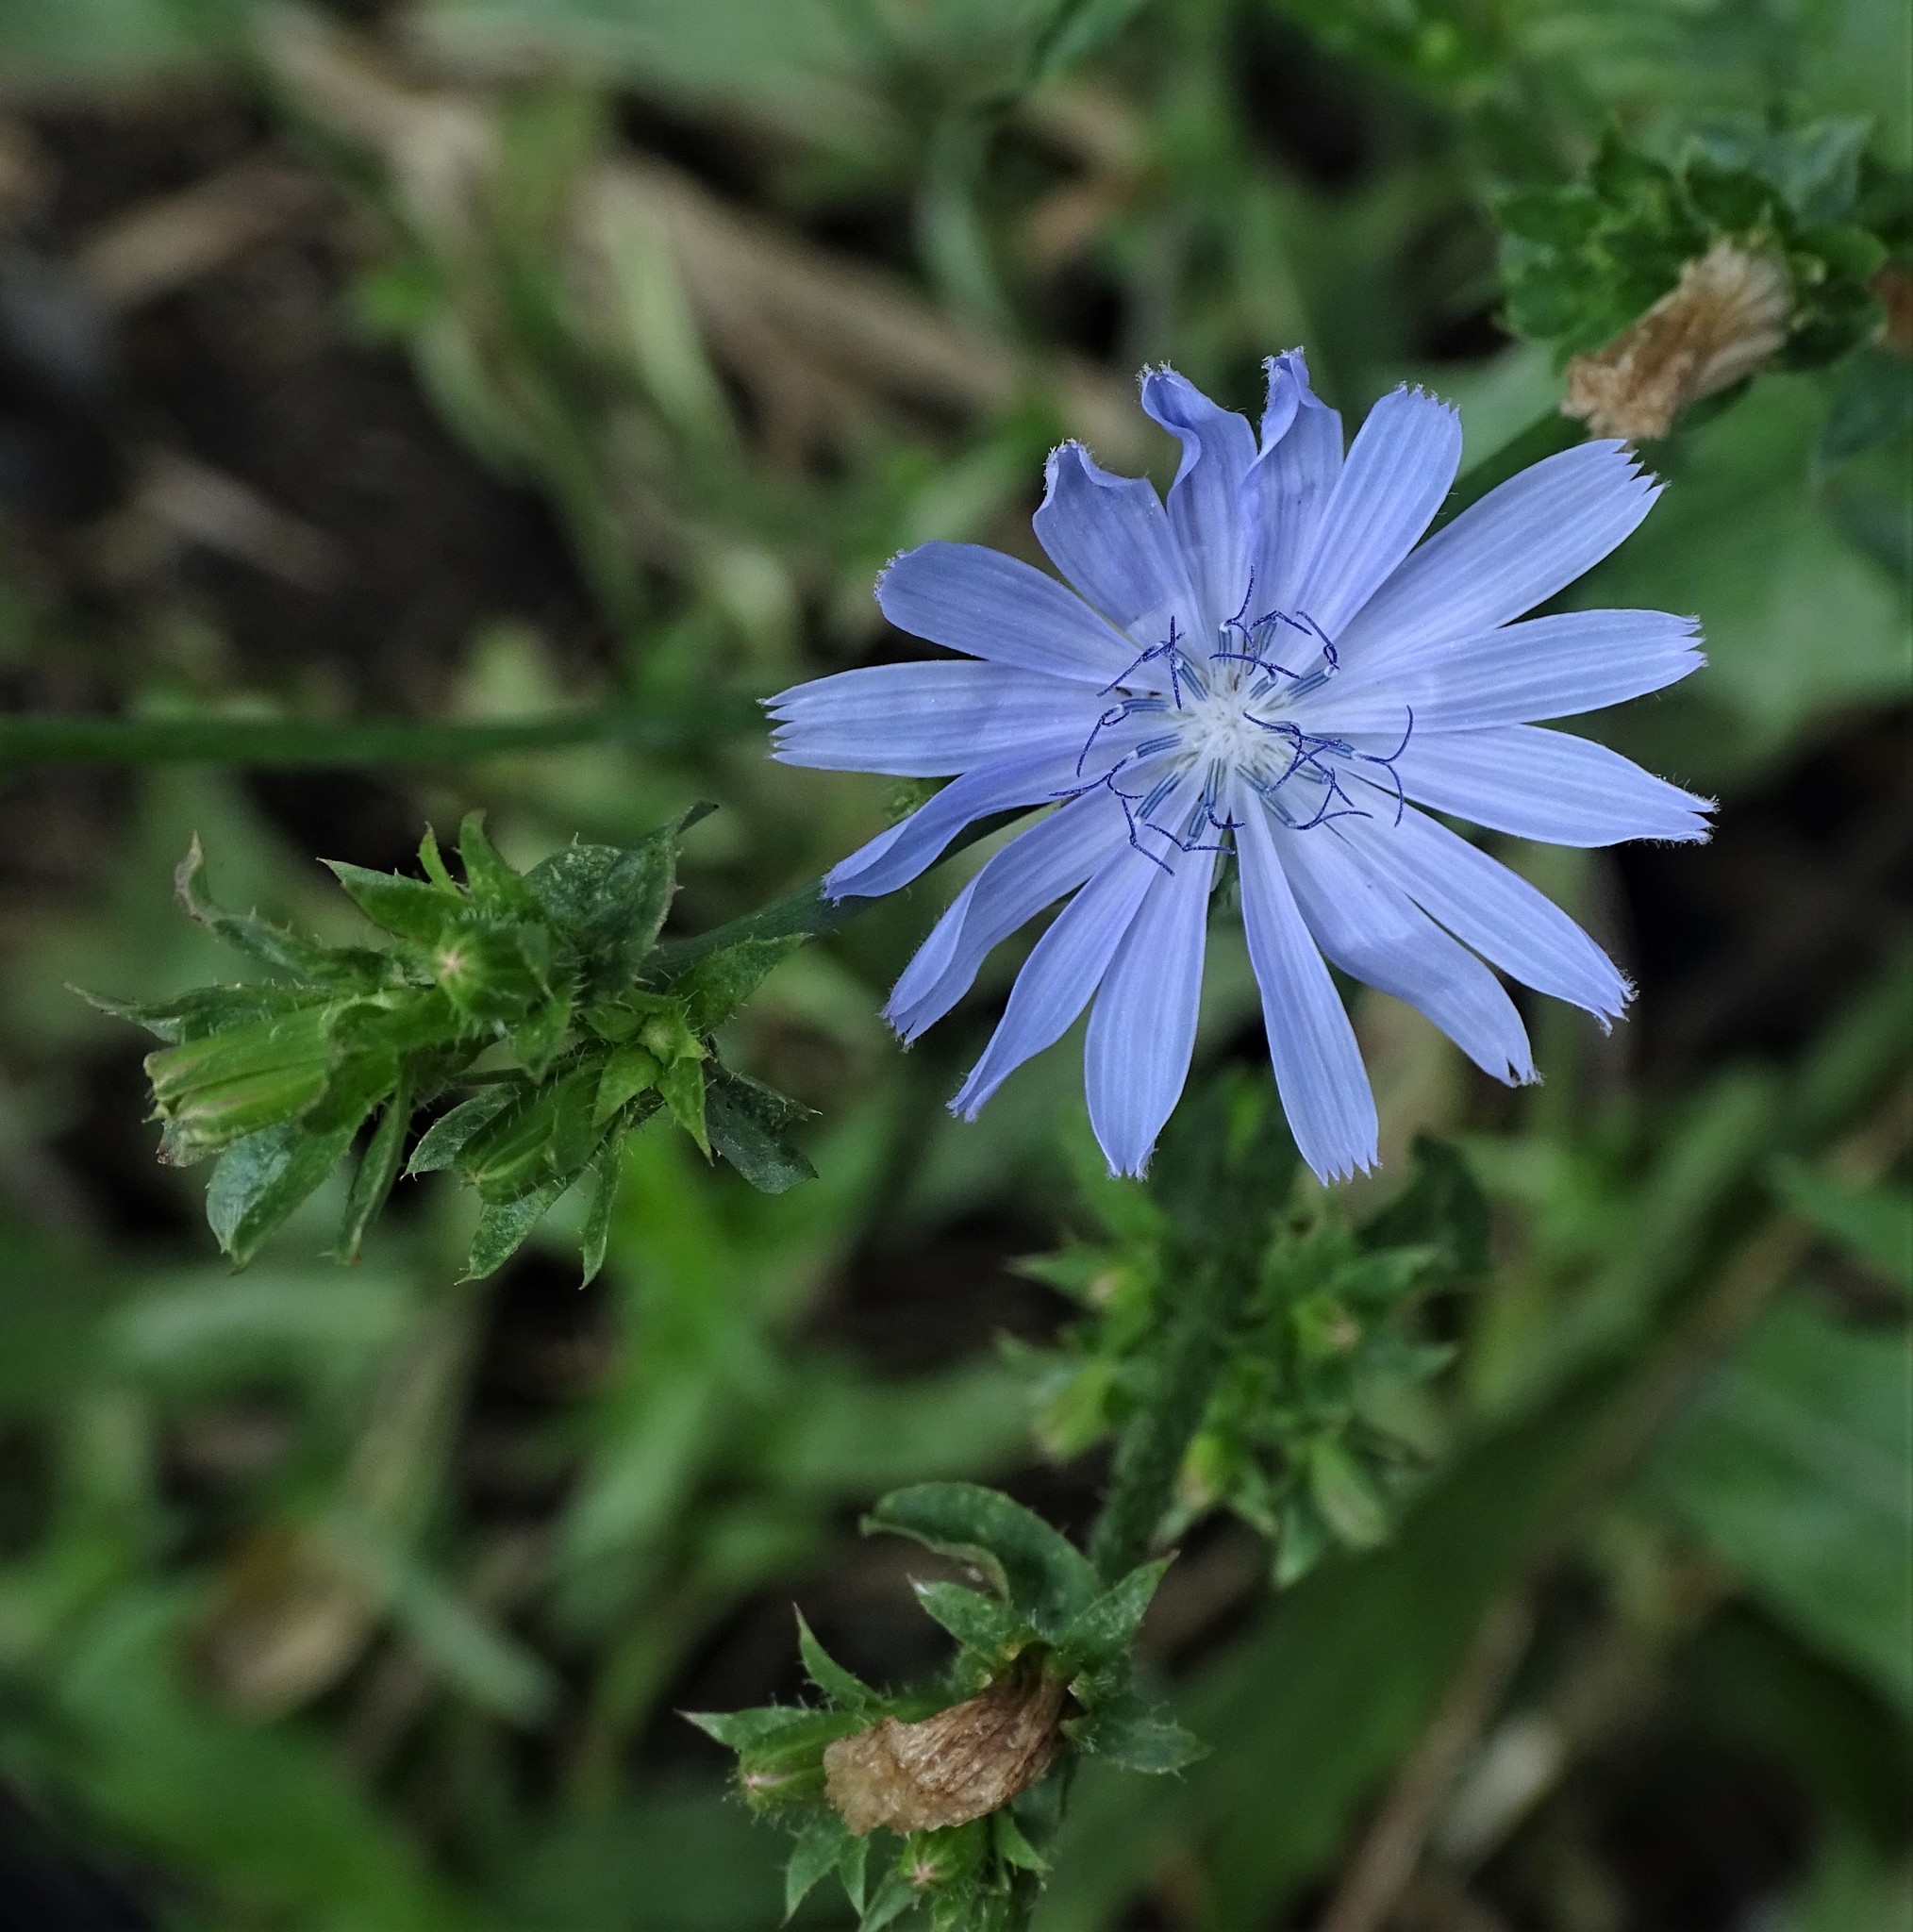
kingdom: Plantae
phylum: Tracheophyta
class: Magnoliopsida
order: Asterales
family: Asteraceae
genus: Cichorium
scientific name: Cichorium intybus
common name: Chicory
